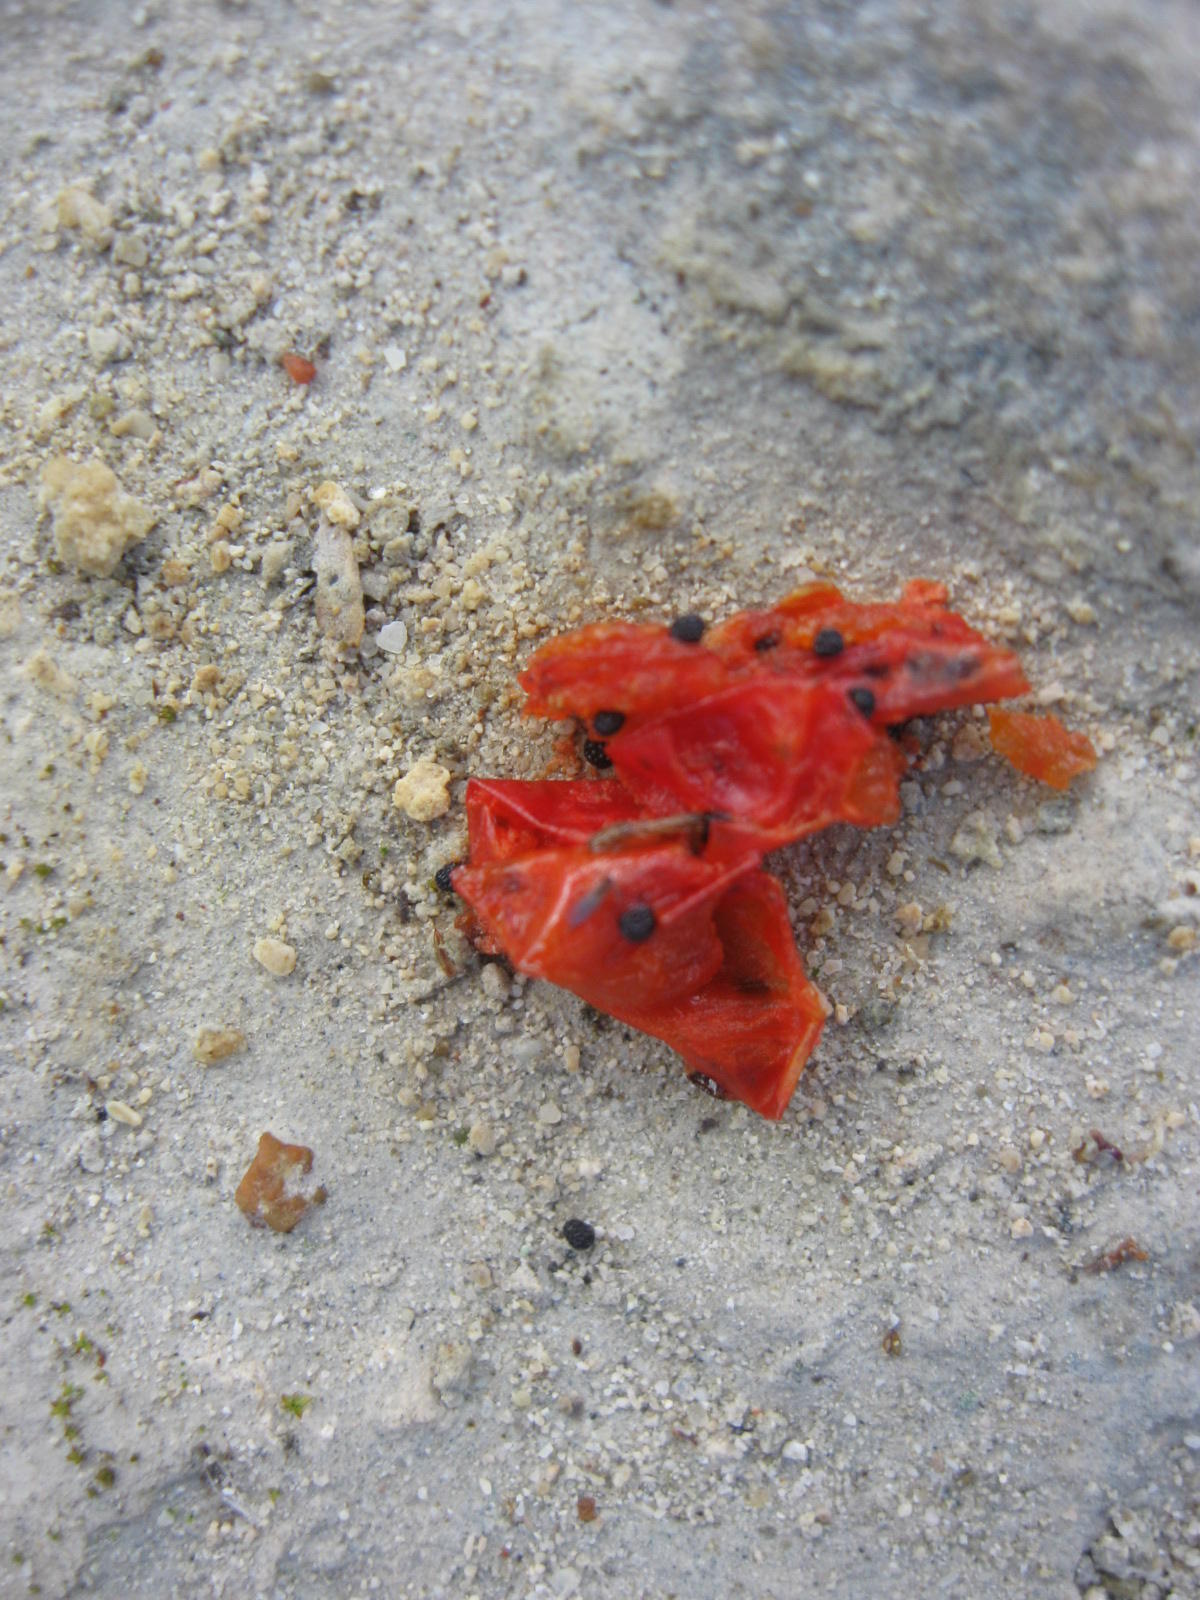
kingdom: Plantae
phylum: Tracheophyta
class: Magnoliopsida
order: Gentianales
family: Gentianaceae
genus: Chironia
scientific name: Chironia baccifera
